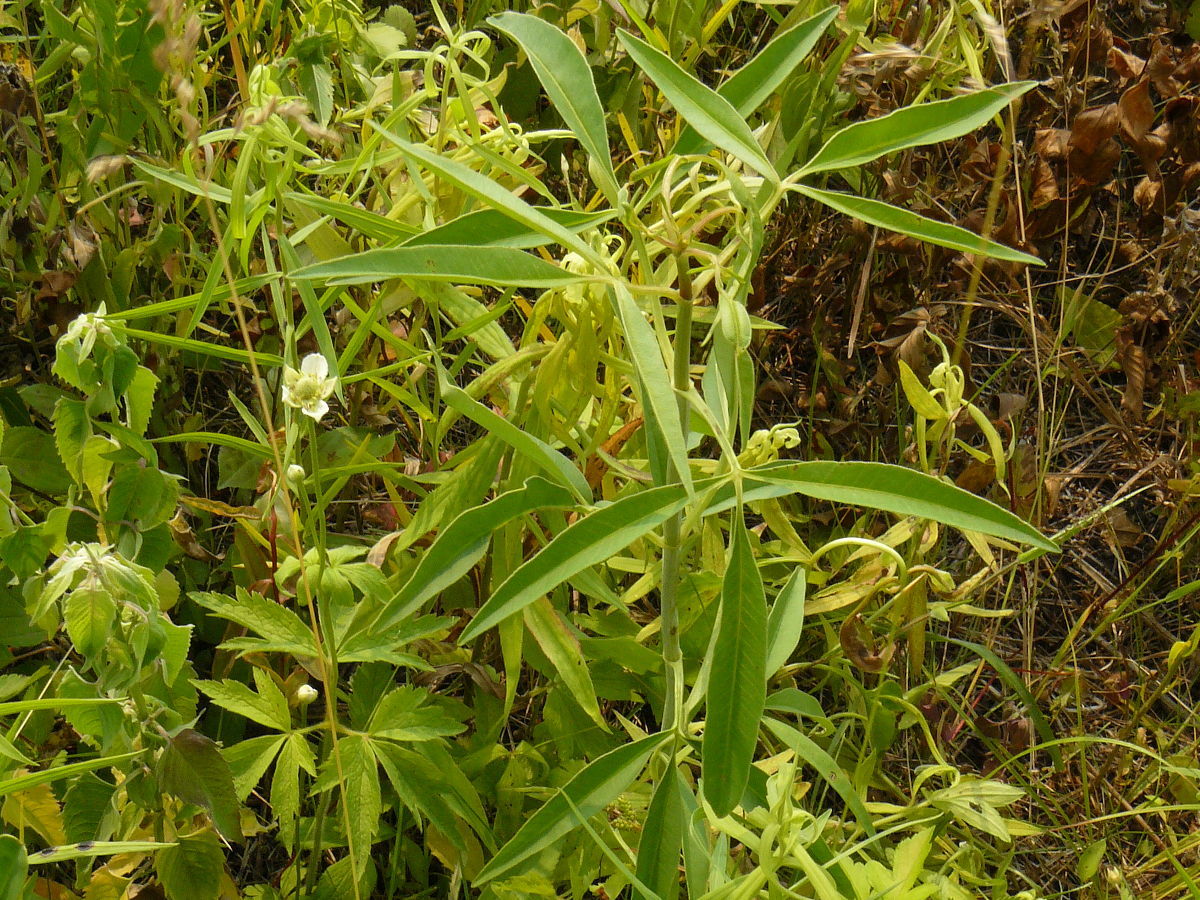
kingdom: Plantae
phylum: Tracheophyta
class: Magnoliopsida
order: Asterales
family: Asteraceae
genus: Coreopsis
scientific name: Coreopsis tripteris
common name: Tall coreopsis
